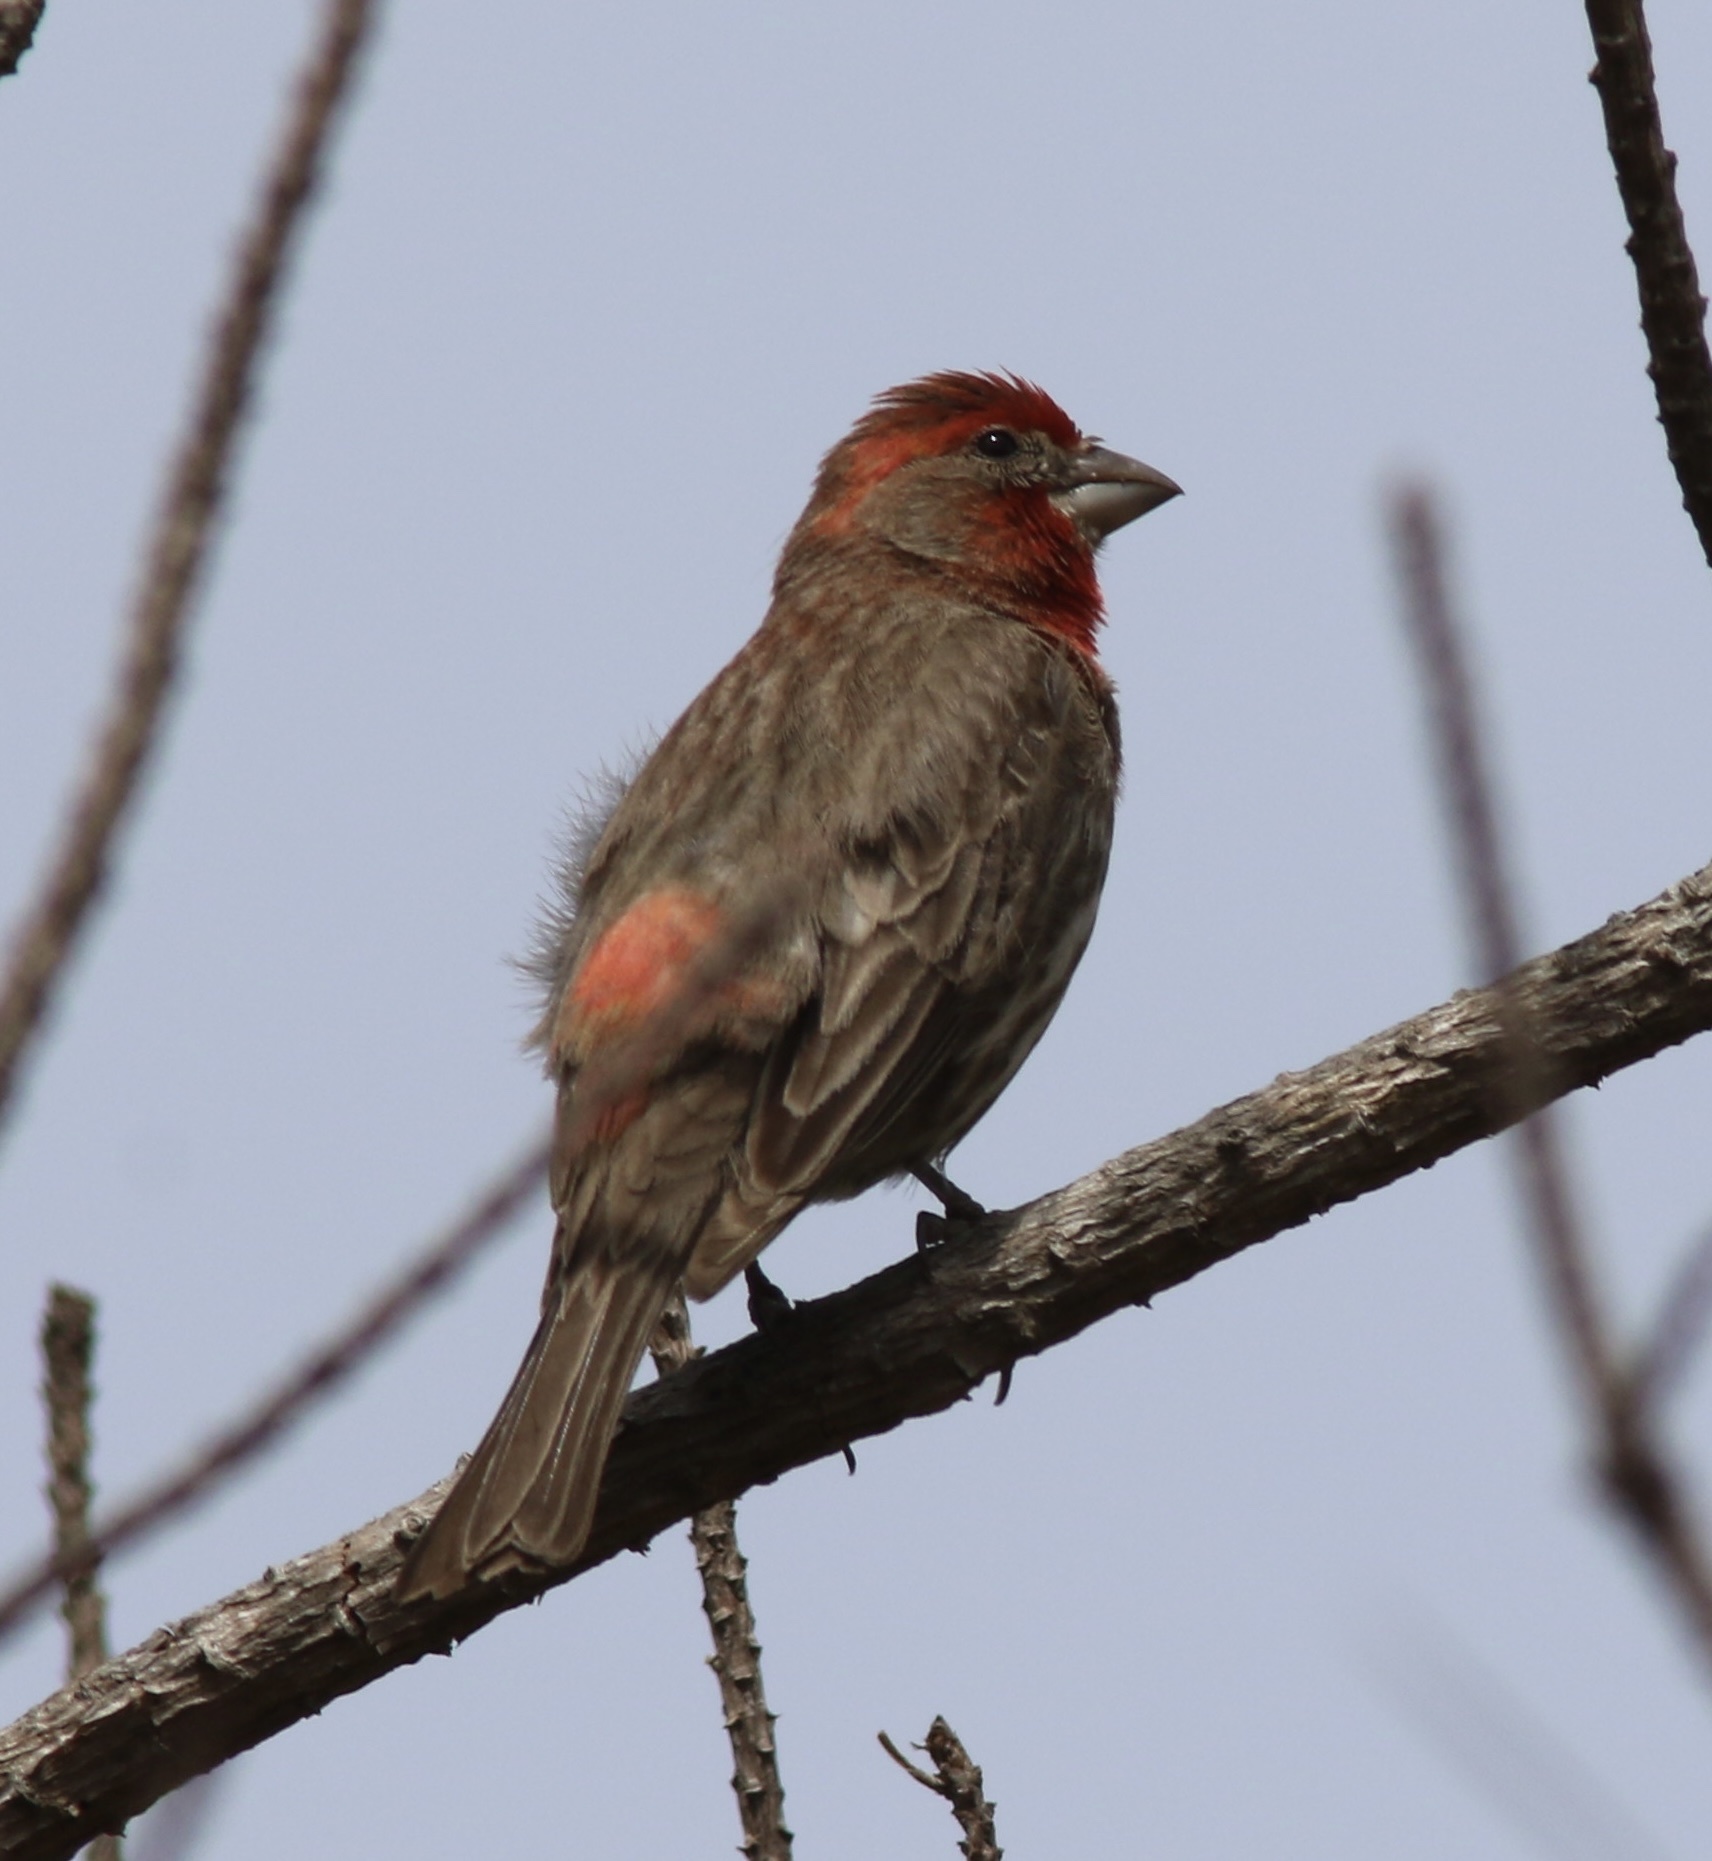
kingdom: Animalia
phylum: Chordata
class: Aves
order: Passeriformes
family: Fringillidae
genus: Haemorhous
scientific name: Haemorhous mexicanus
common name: House finch
